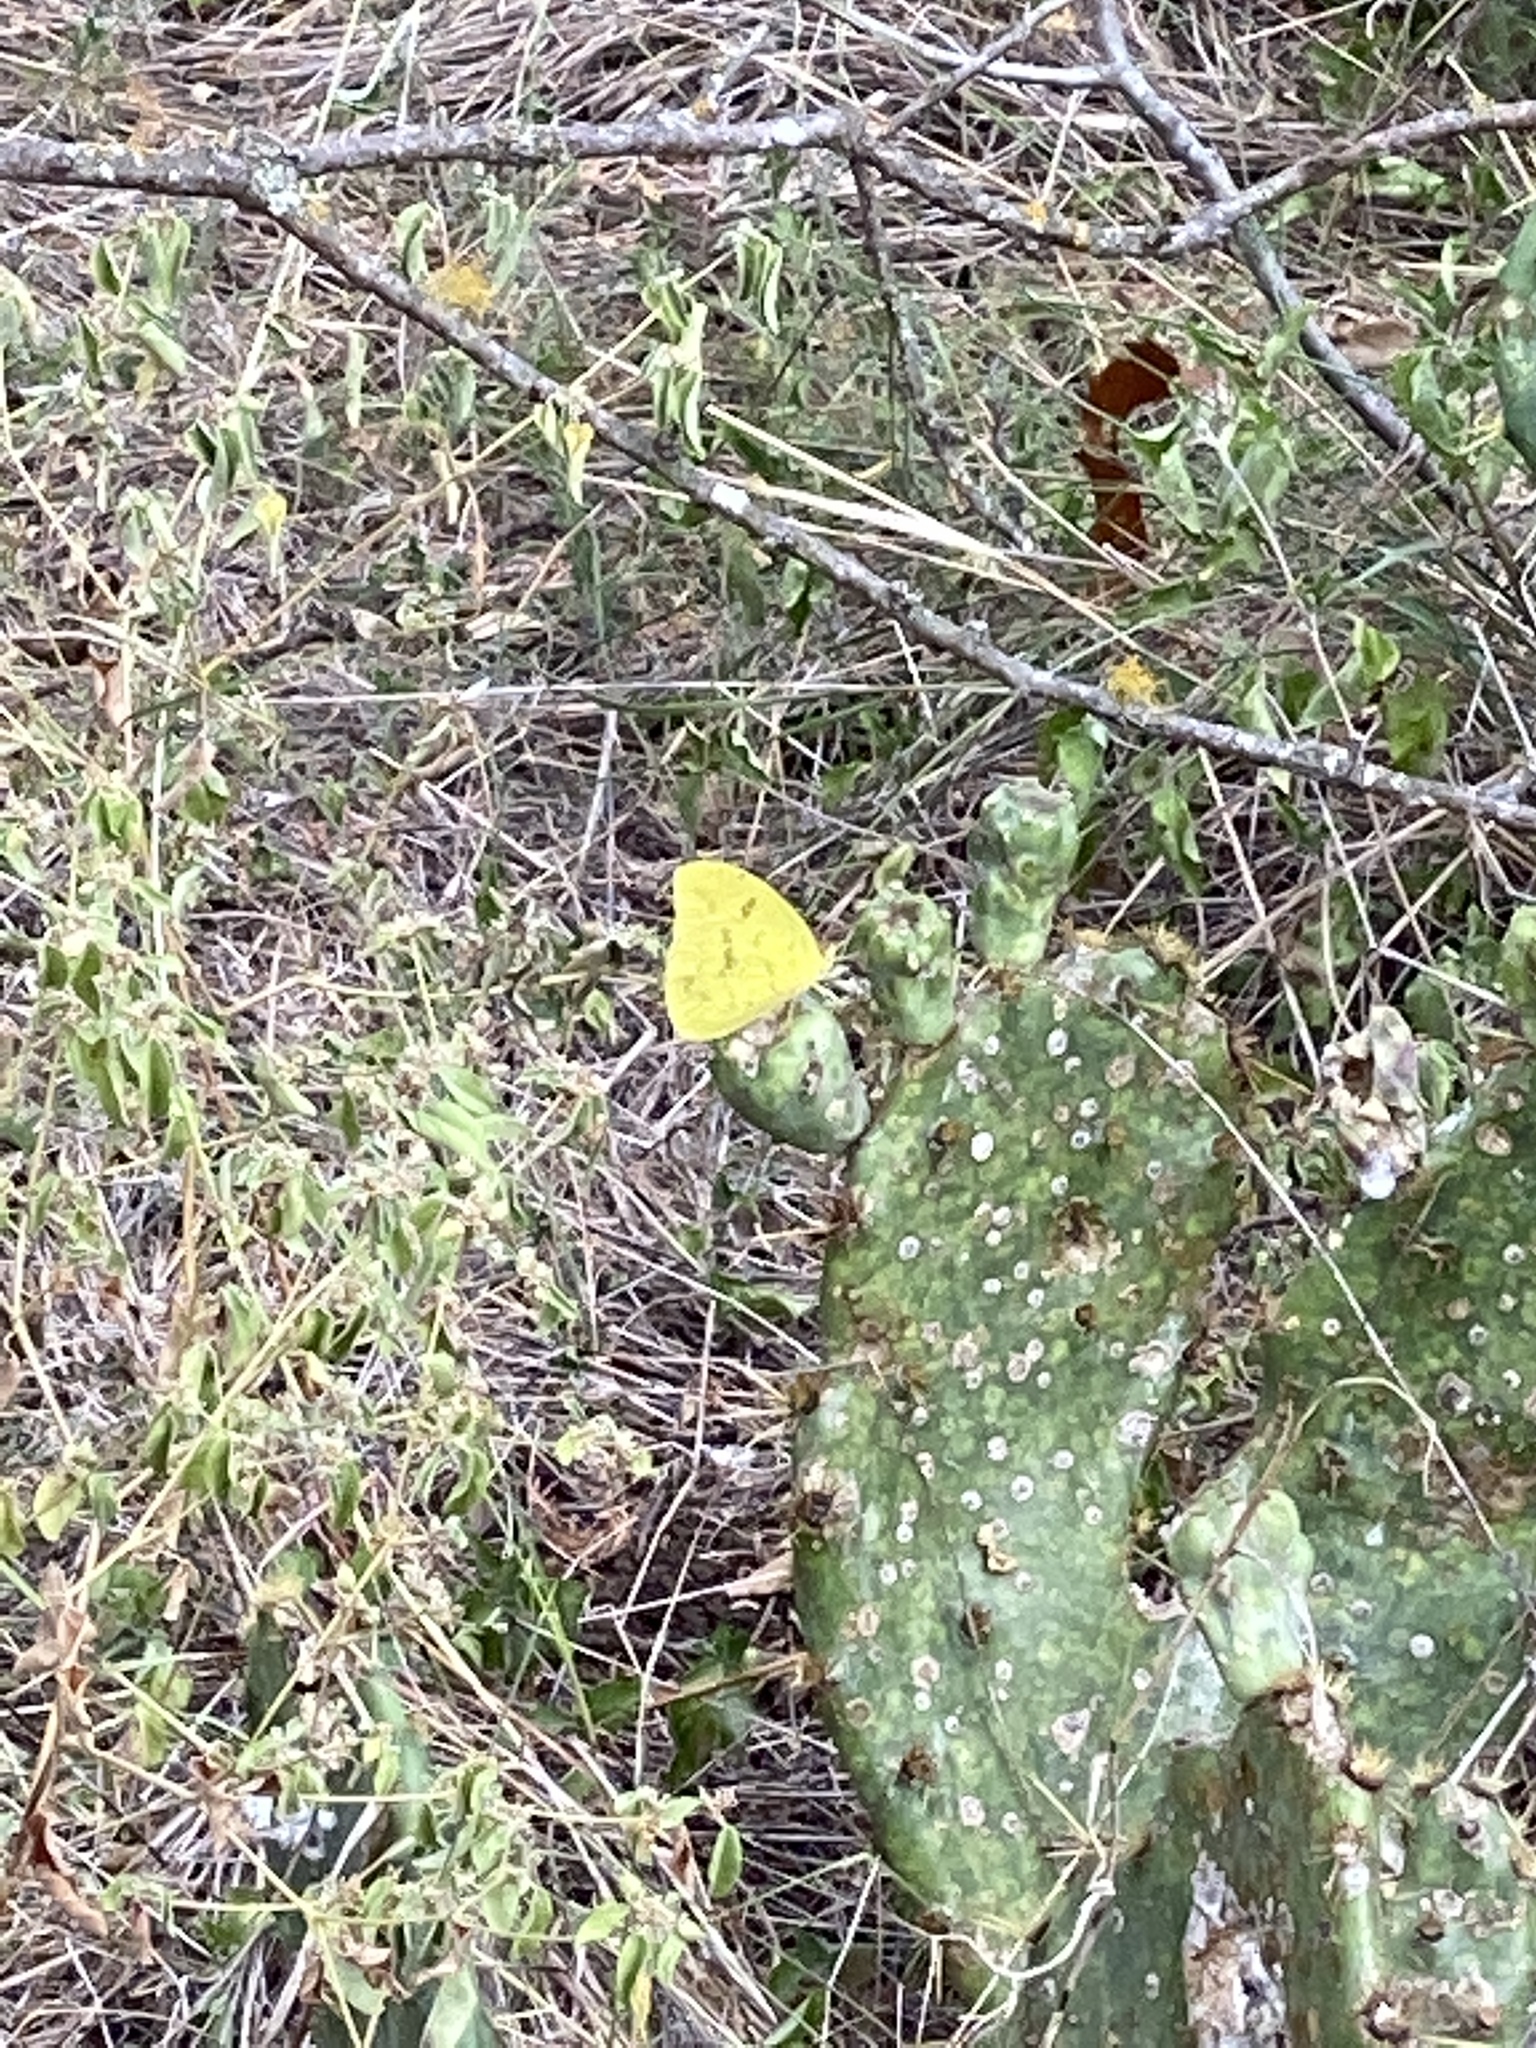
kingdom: Animalia
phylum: Arthropoda
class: Insecta
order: Lepidoptera
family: Pieridae
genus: Pyrisitia
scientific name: Pyrisitia lisa
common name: Little yellow
